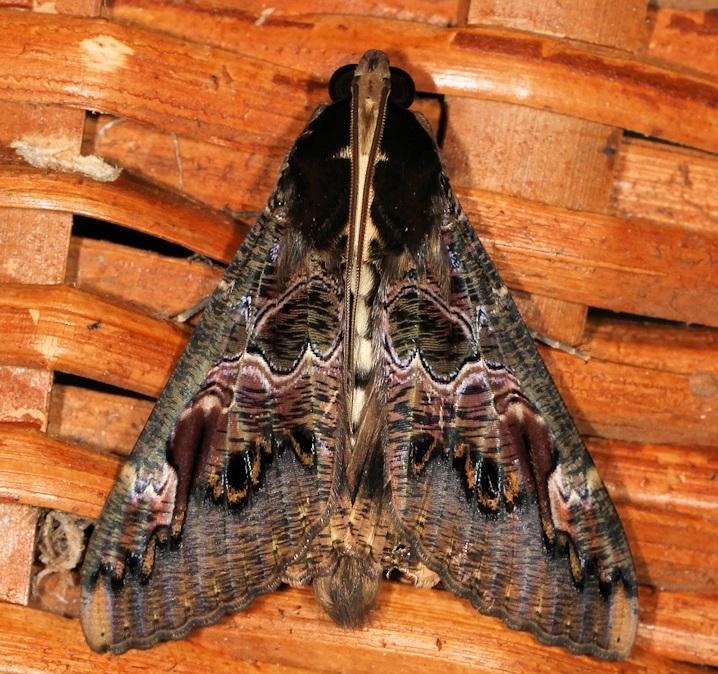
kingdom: Animalia
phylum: Arthropoda
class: Insecta
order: Lepidoptera
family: Erebidae
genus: Sphingomorpha
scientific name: Sphingomorpha chlorea
